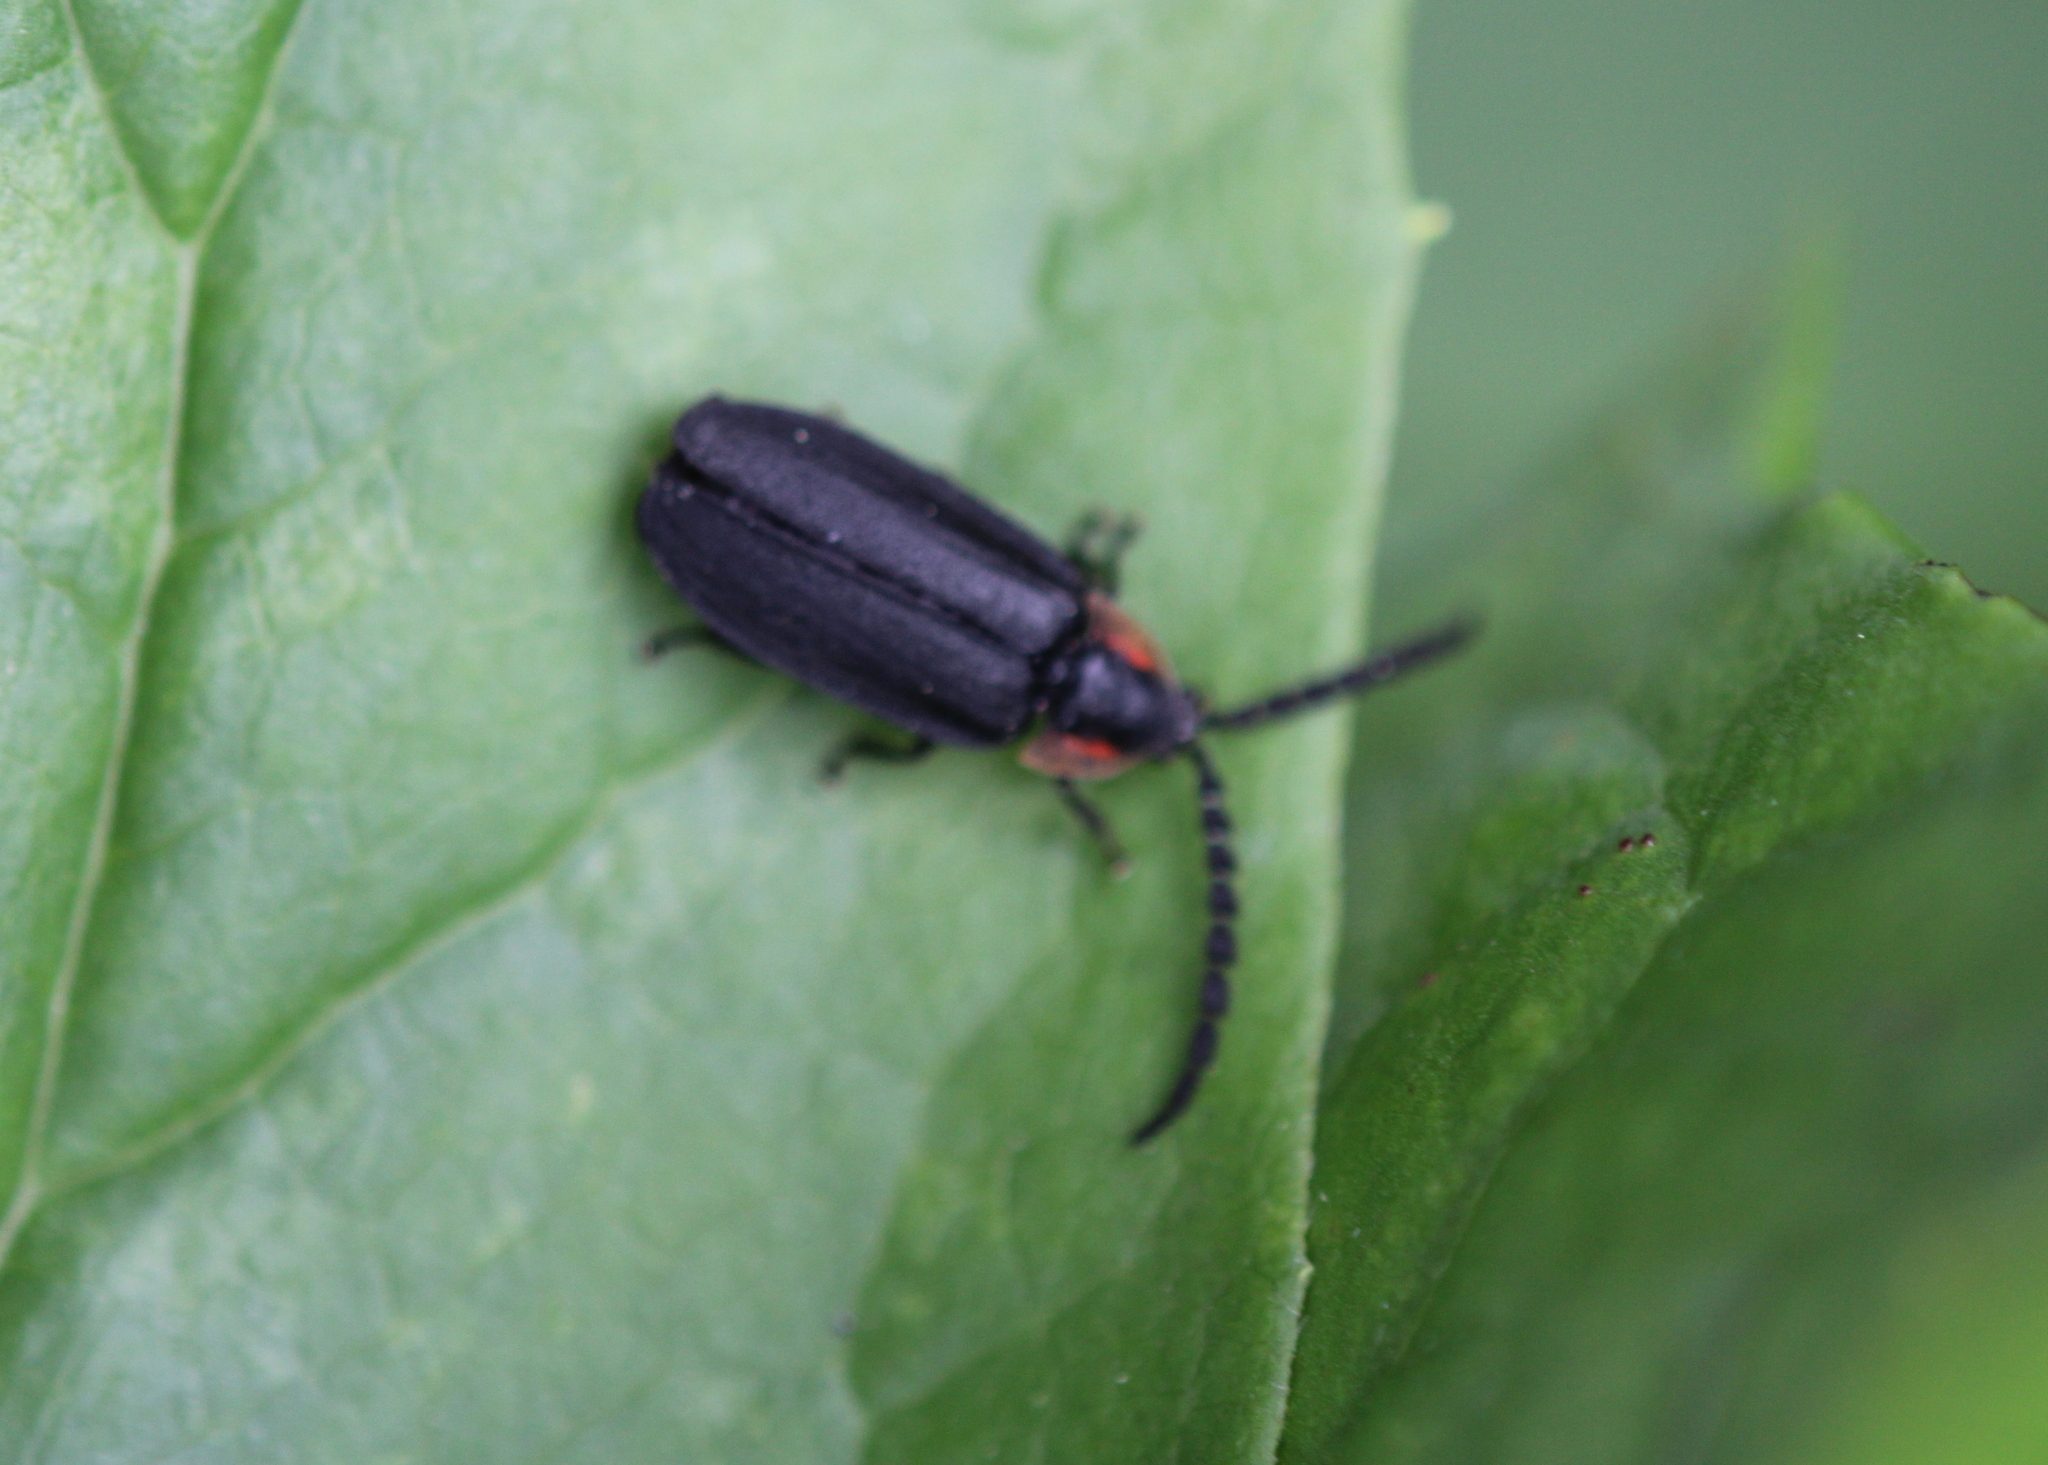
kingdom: Animalia
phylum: Arthropoda
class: Insecta
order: Coleoptera
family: Lampyridae
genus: Lucidota
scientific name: Lucidota atra
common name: Black firefly
